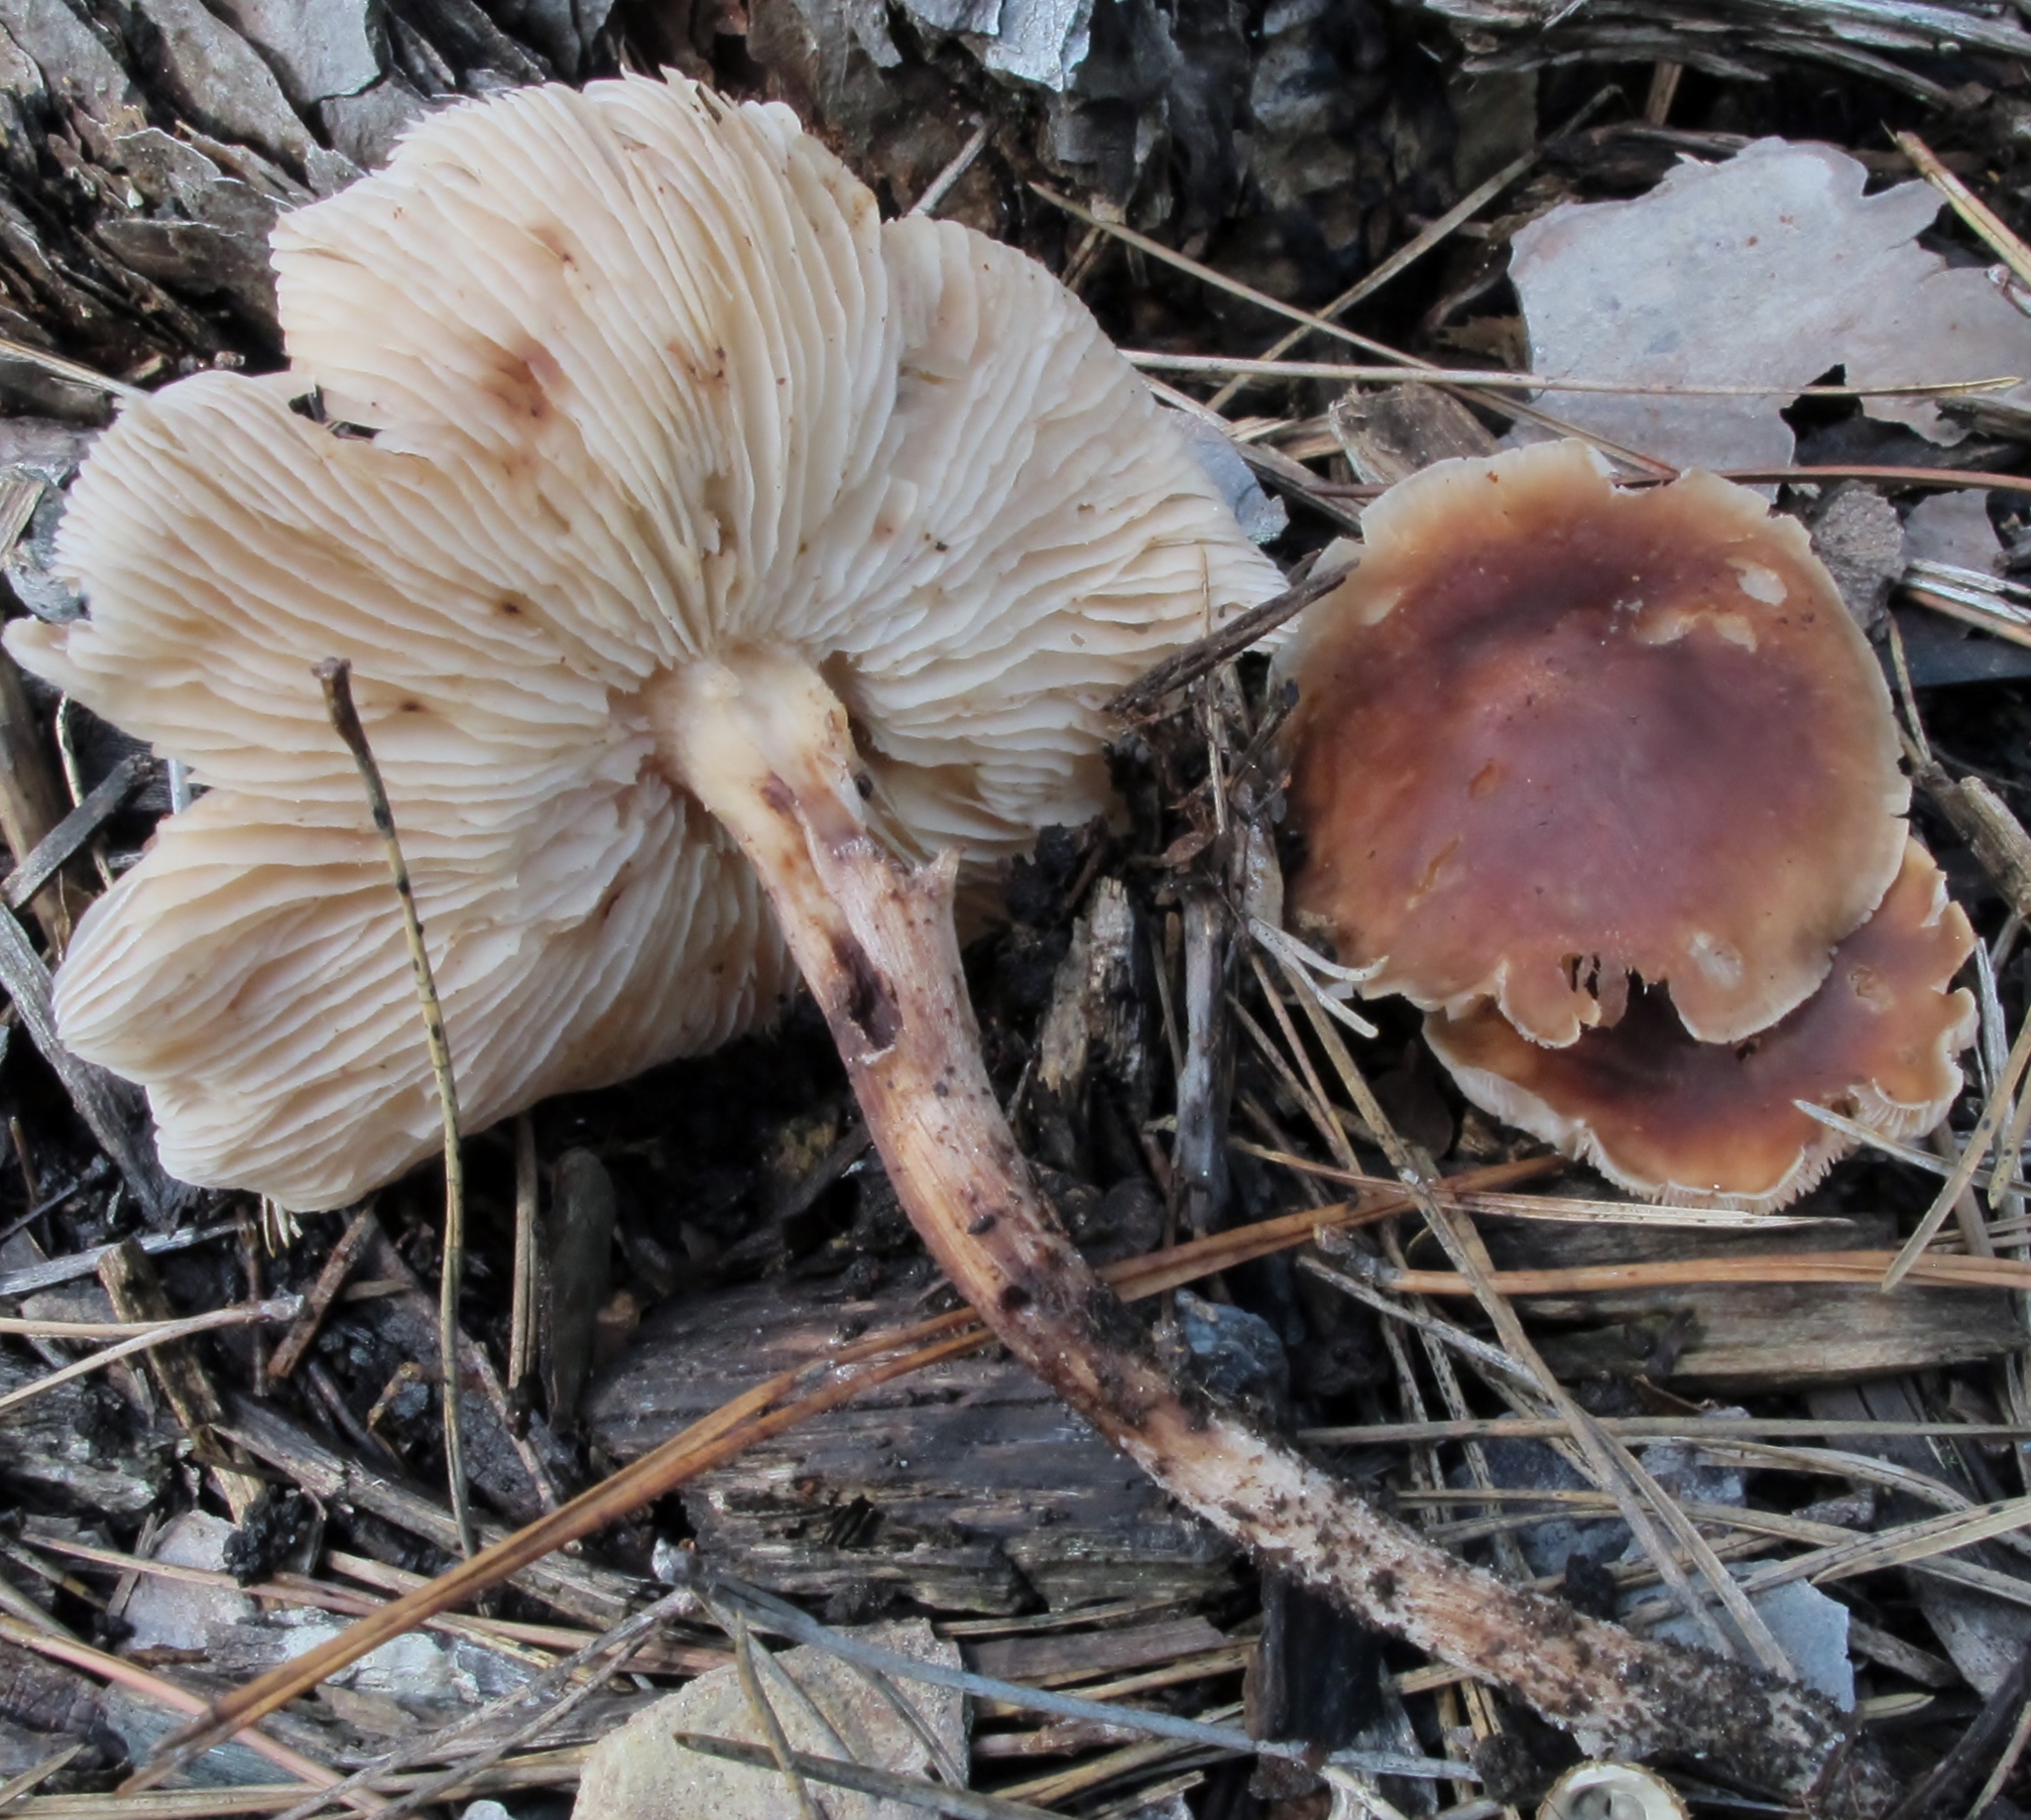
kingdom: Fungi
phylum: Basidiomycota
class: Agaricomycetes
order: Agaricales
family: Omphalotaceae
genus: Collybiopsis
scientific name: Collybiopsis luxurians
